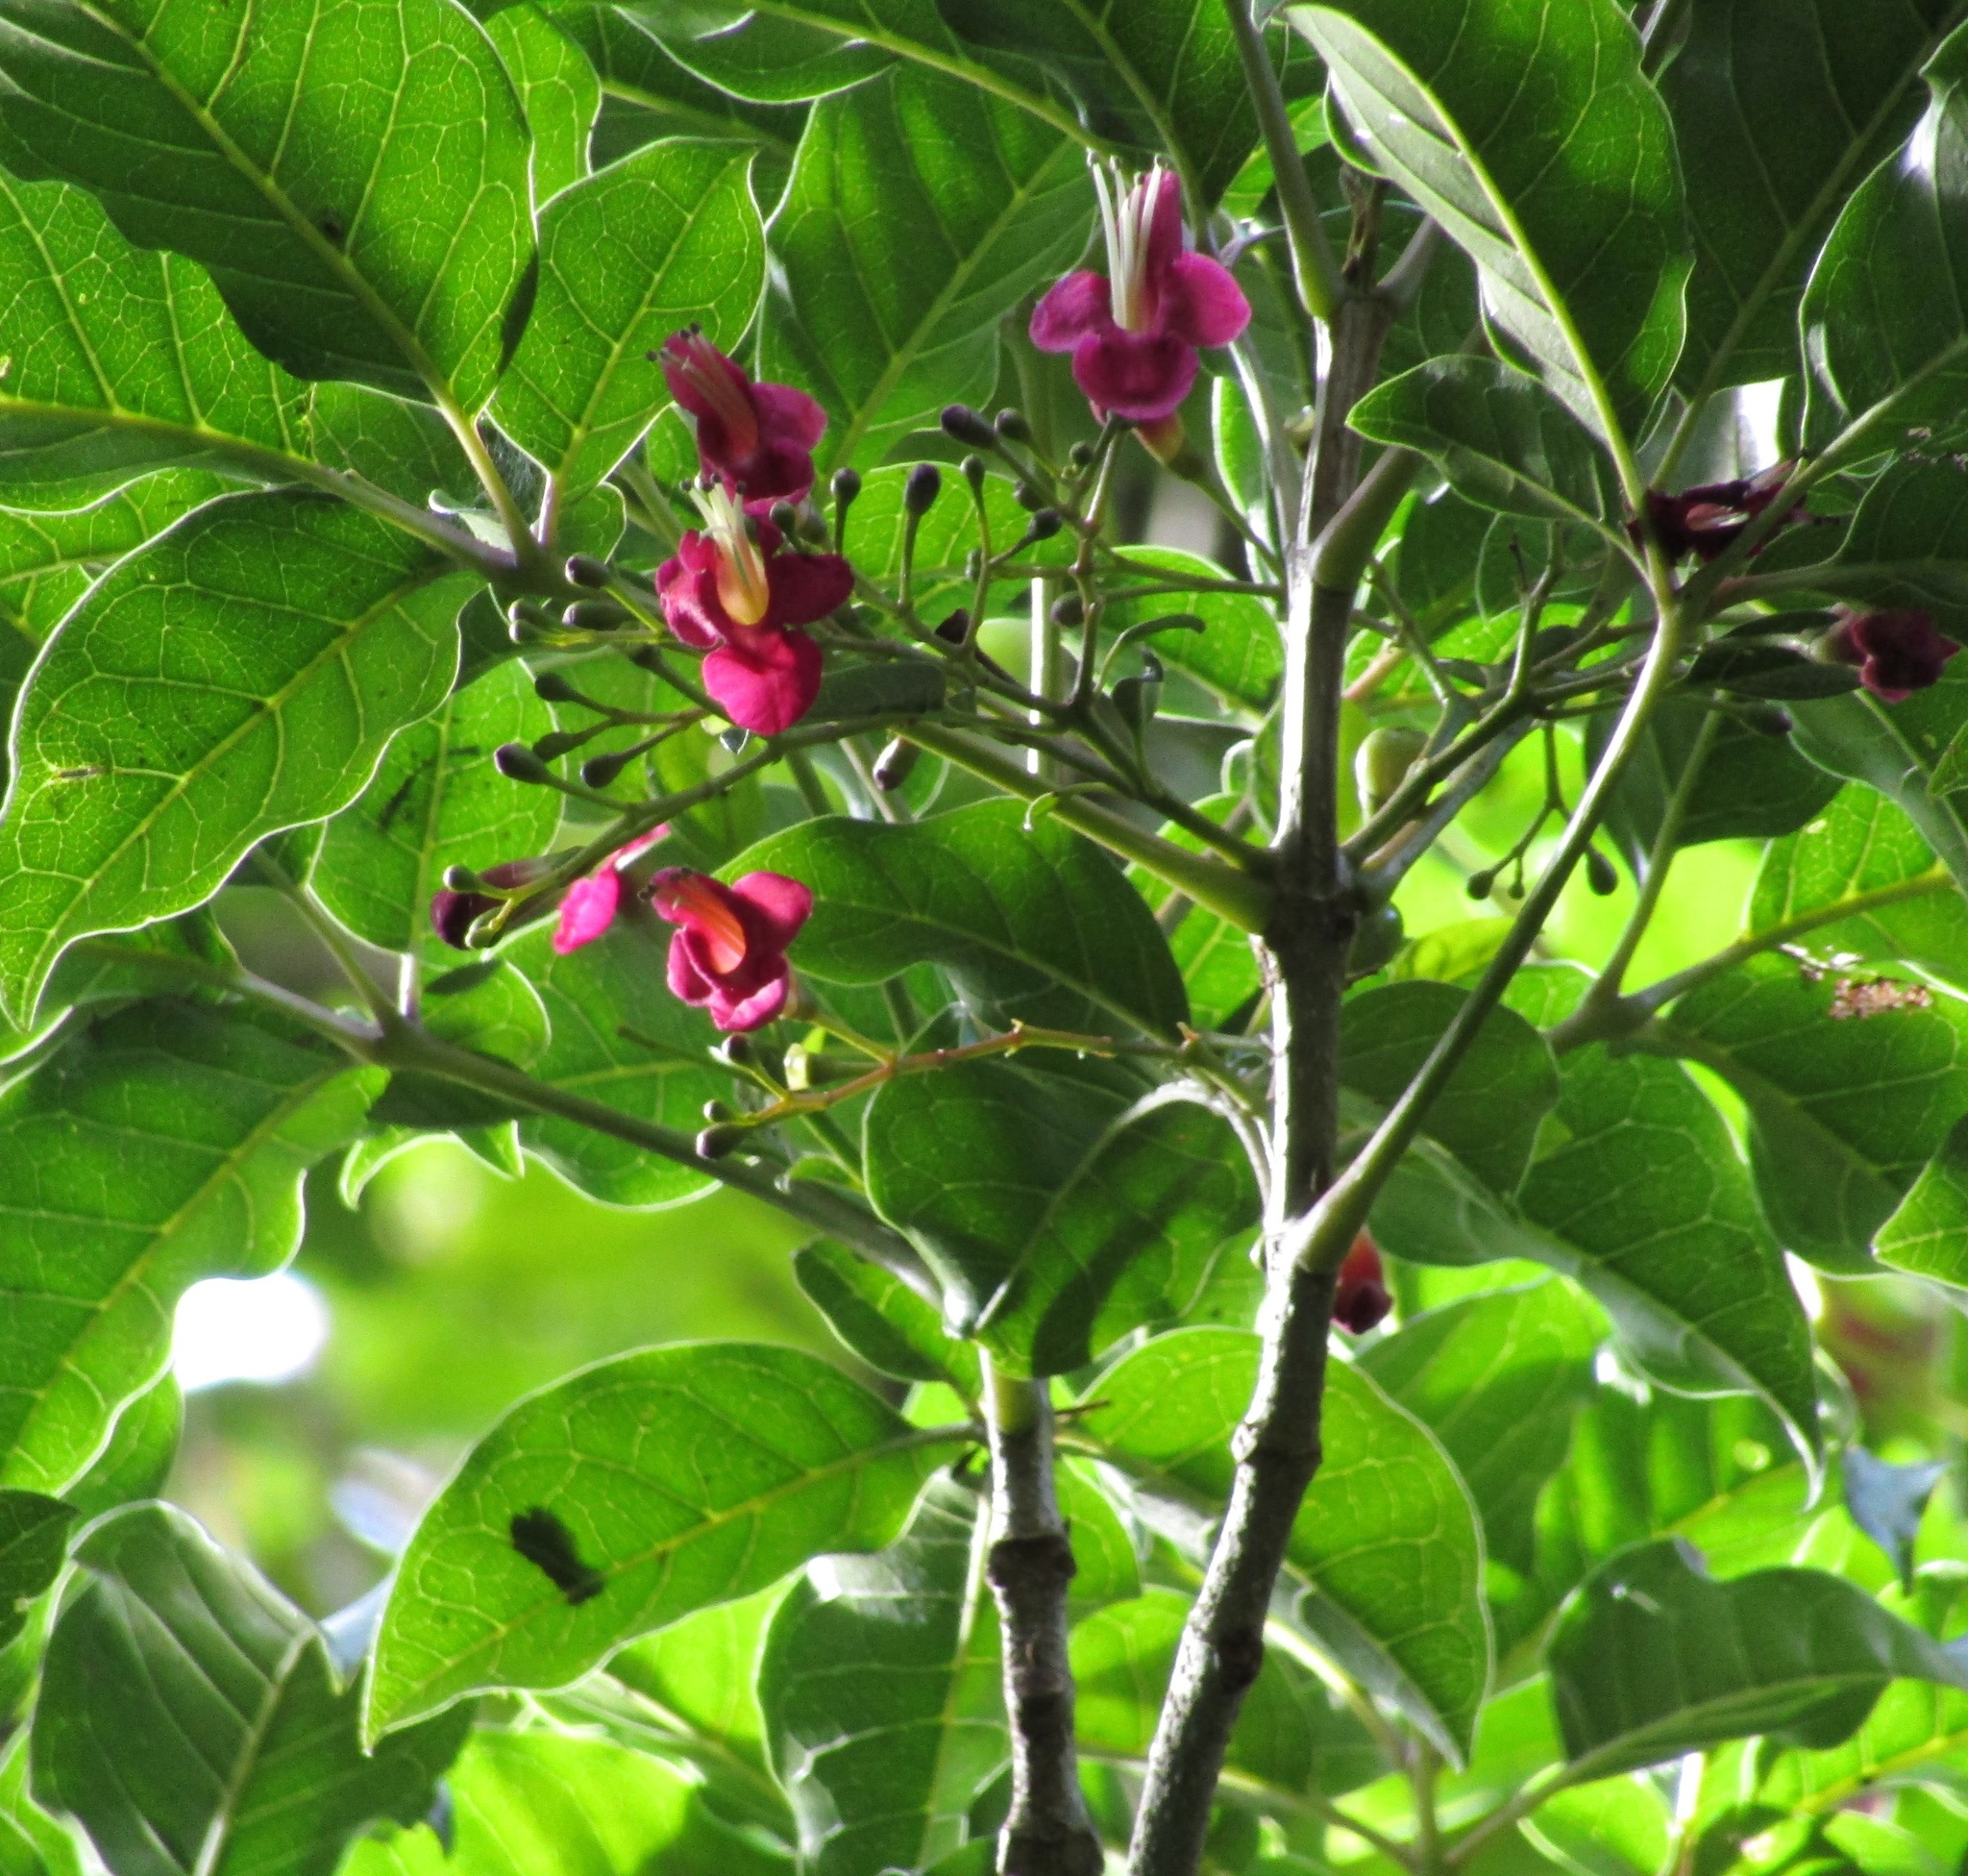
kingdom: Plantae
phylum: Tracheophyta
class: Magnoliopsida
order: Lamiales
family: Lamiaceae
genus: Vitex
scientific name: Vitex lucens
